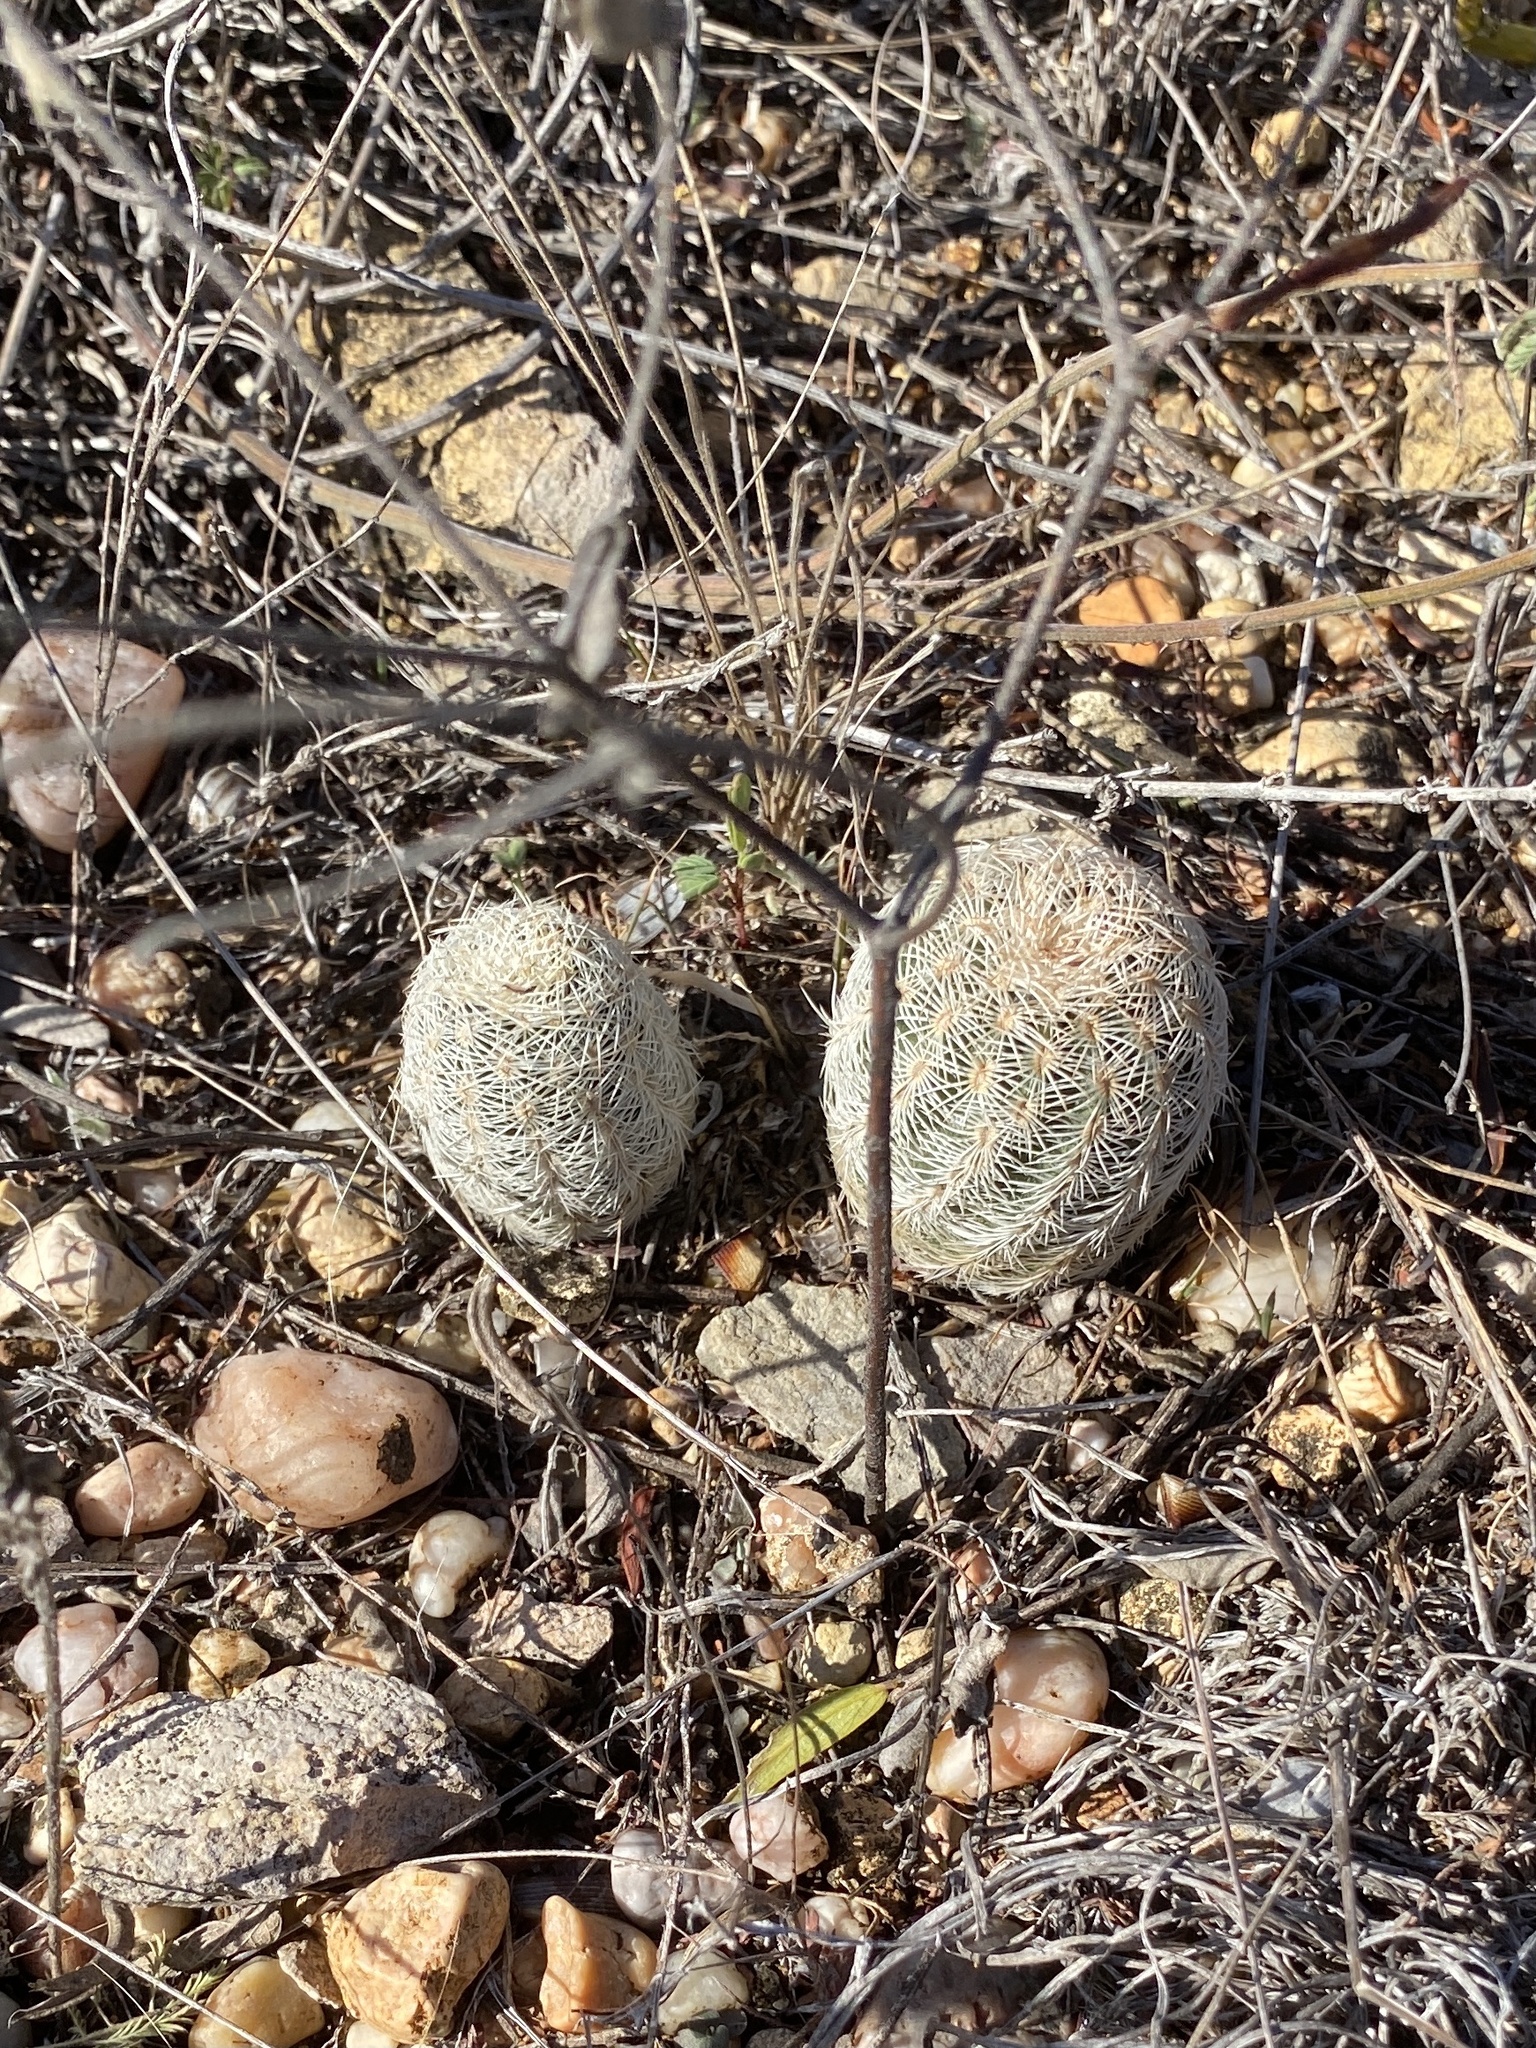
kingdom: Plantae
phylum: Tracheophyta
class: Magnoliopsida
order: Caryophyllales
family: Cactaceae
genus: Echinocereus
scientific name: Echinocereus reichenbachii
